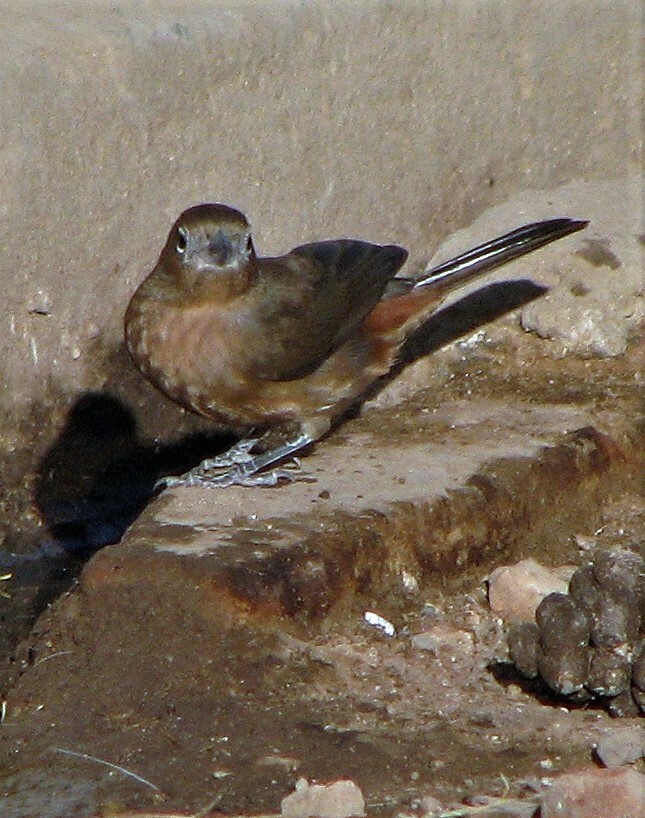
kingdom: Animalia
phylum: Chordata
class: Aves
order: Passeriformes
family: Thraupidae
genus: Coryphospingus
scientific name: Coryphospingus cucullatus
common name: Red pileated finch
